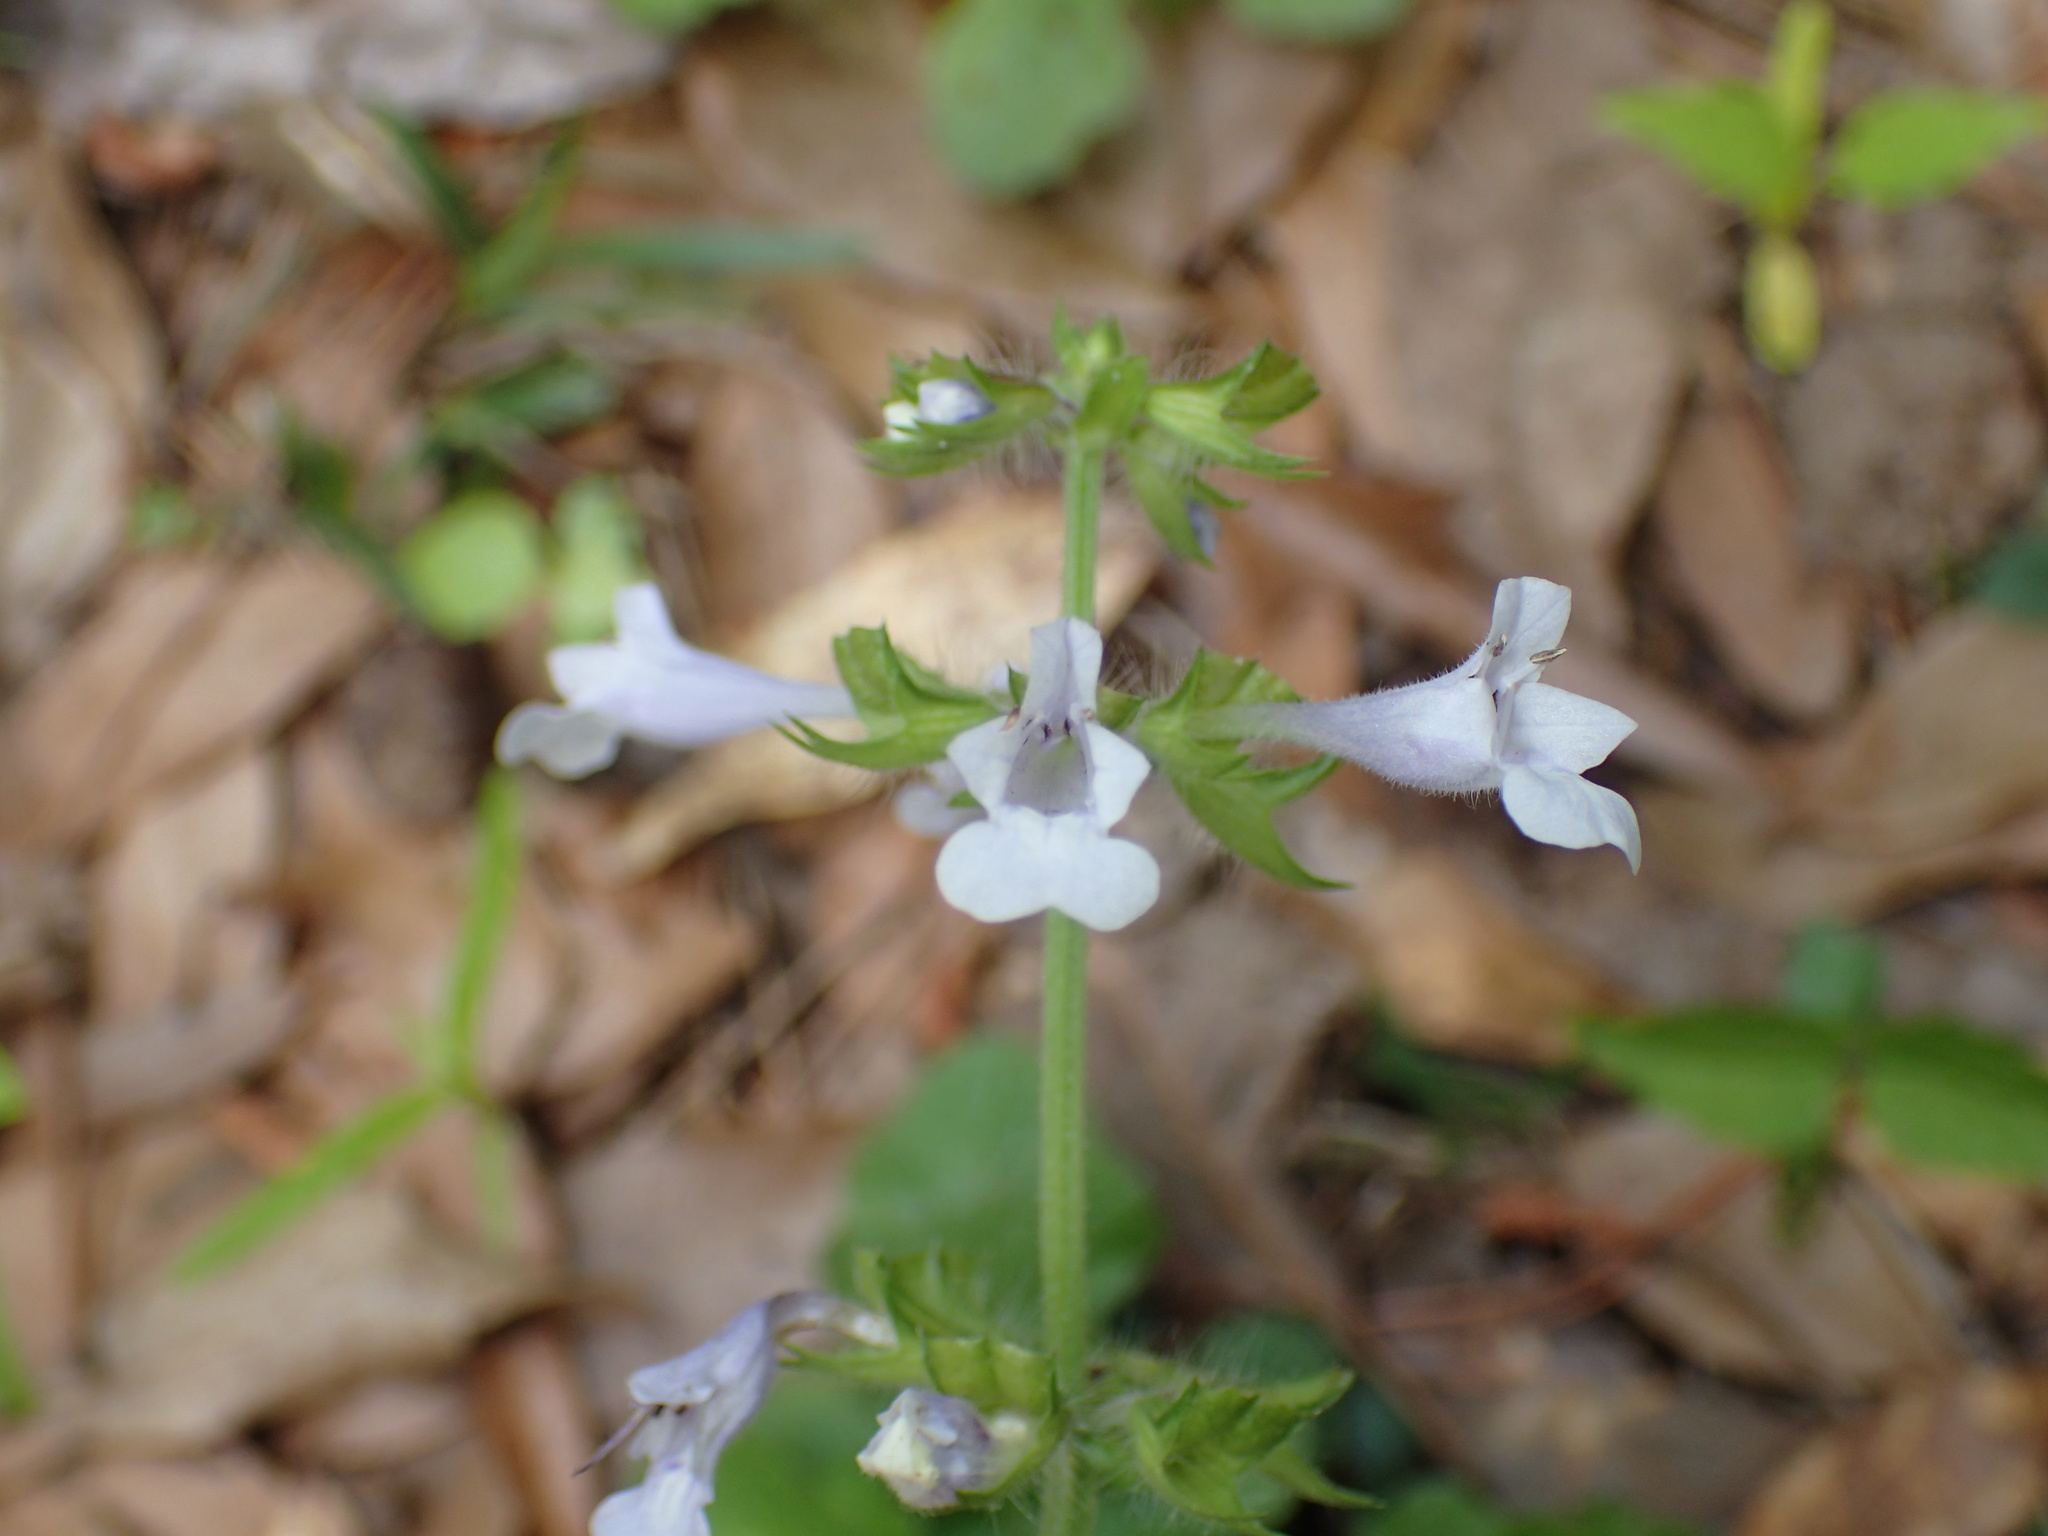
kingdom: Plantae
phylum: Tracheophyta
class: Magnoliopsida
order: Lamiales
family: Lamiaceae
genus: Salvia
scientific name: Salvia lyrata
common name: Cancerweed
